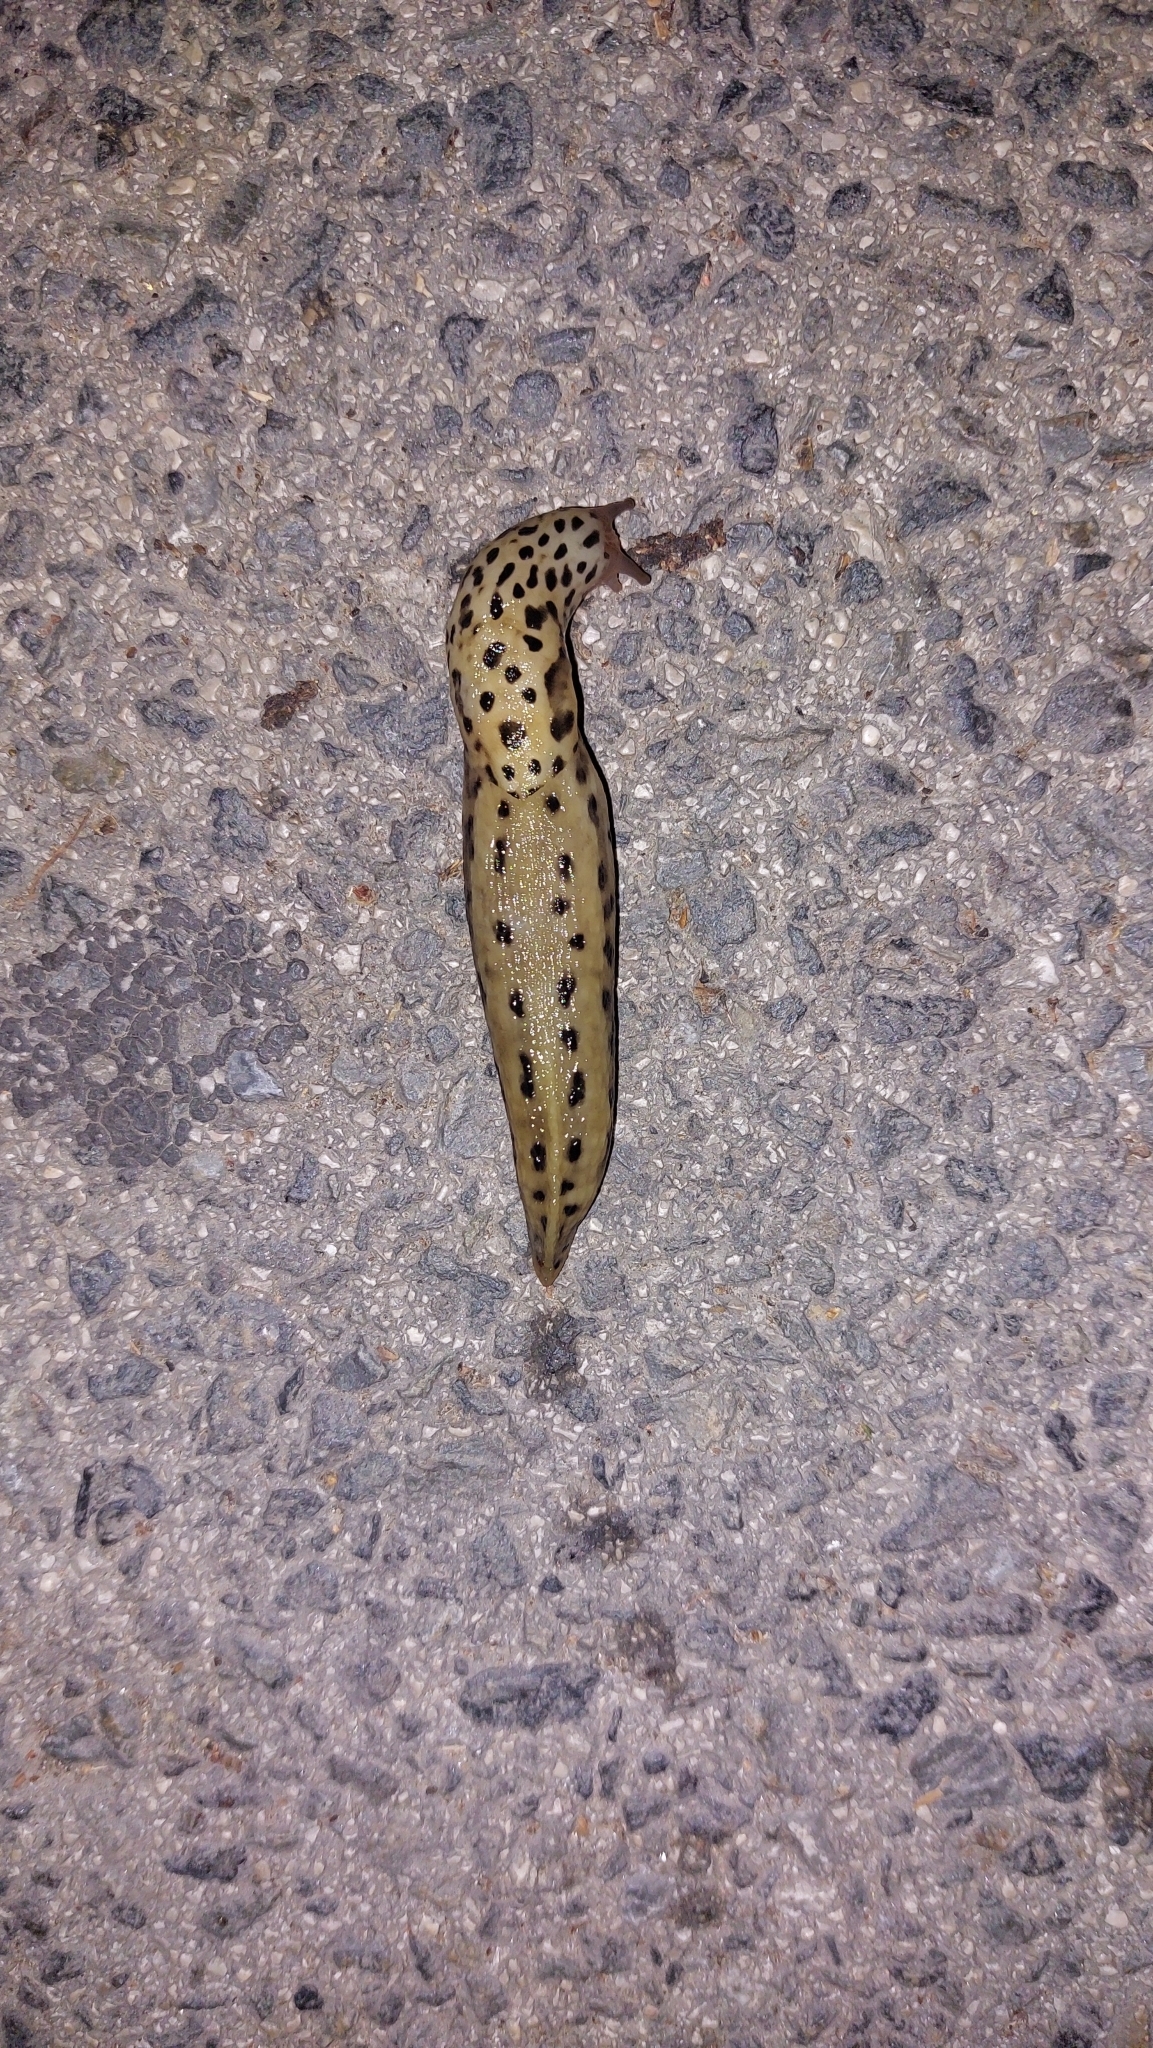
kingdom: Animalia
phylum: Mollusca
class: Gastropoda
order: Stylommatophora
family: Limacidae
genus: Limax
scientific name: Limax maximus
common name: Great grey slug
